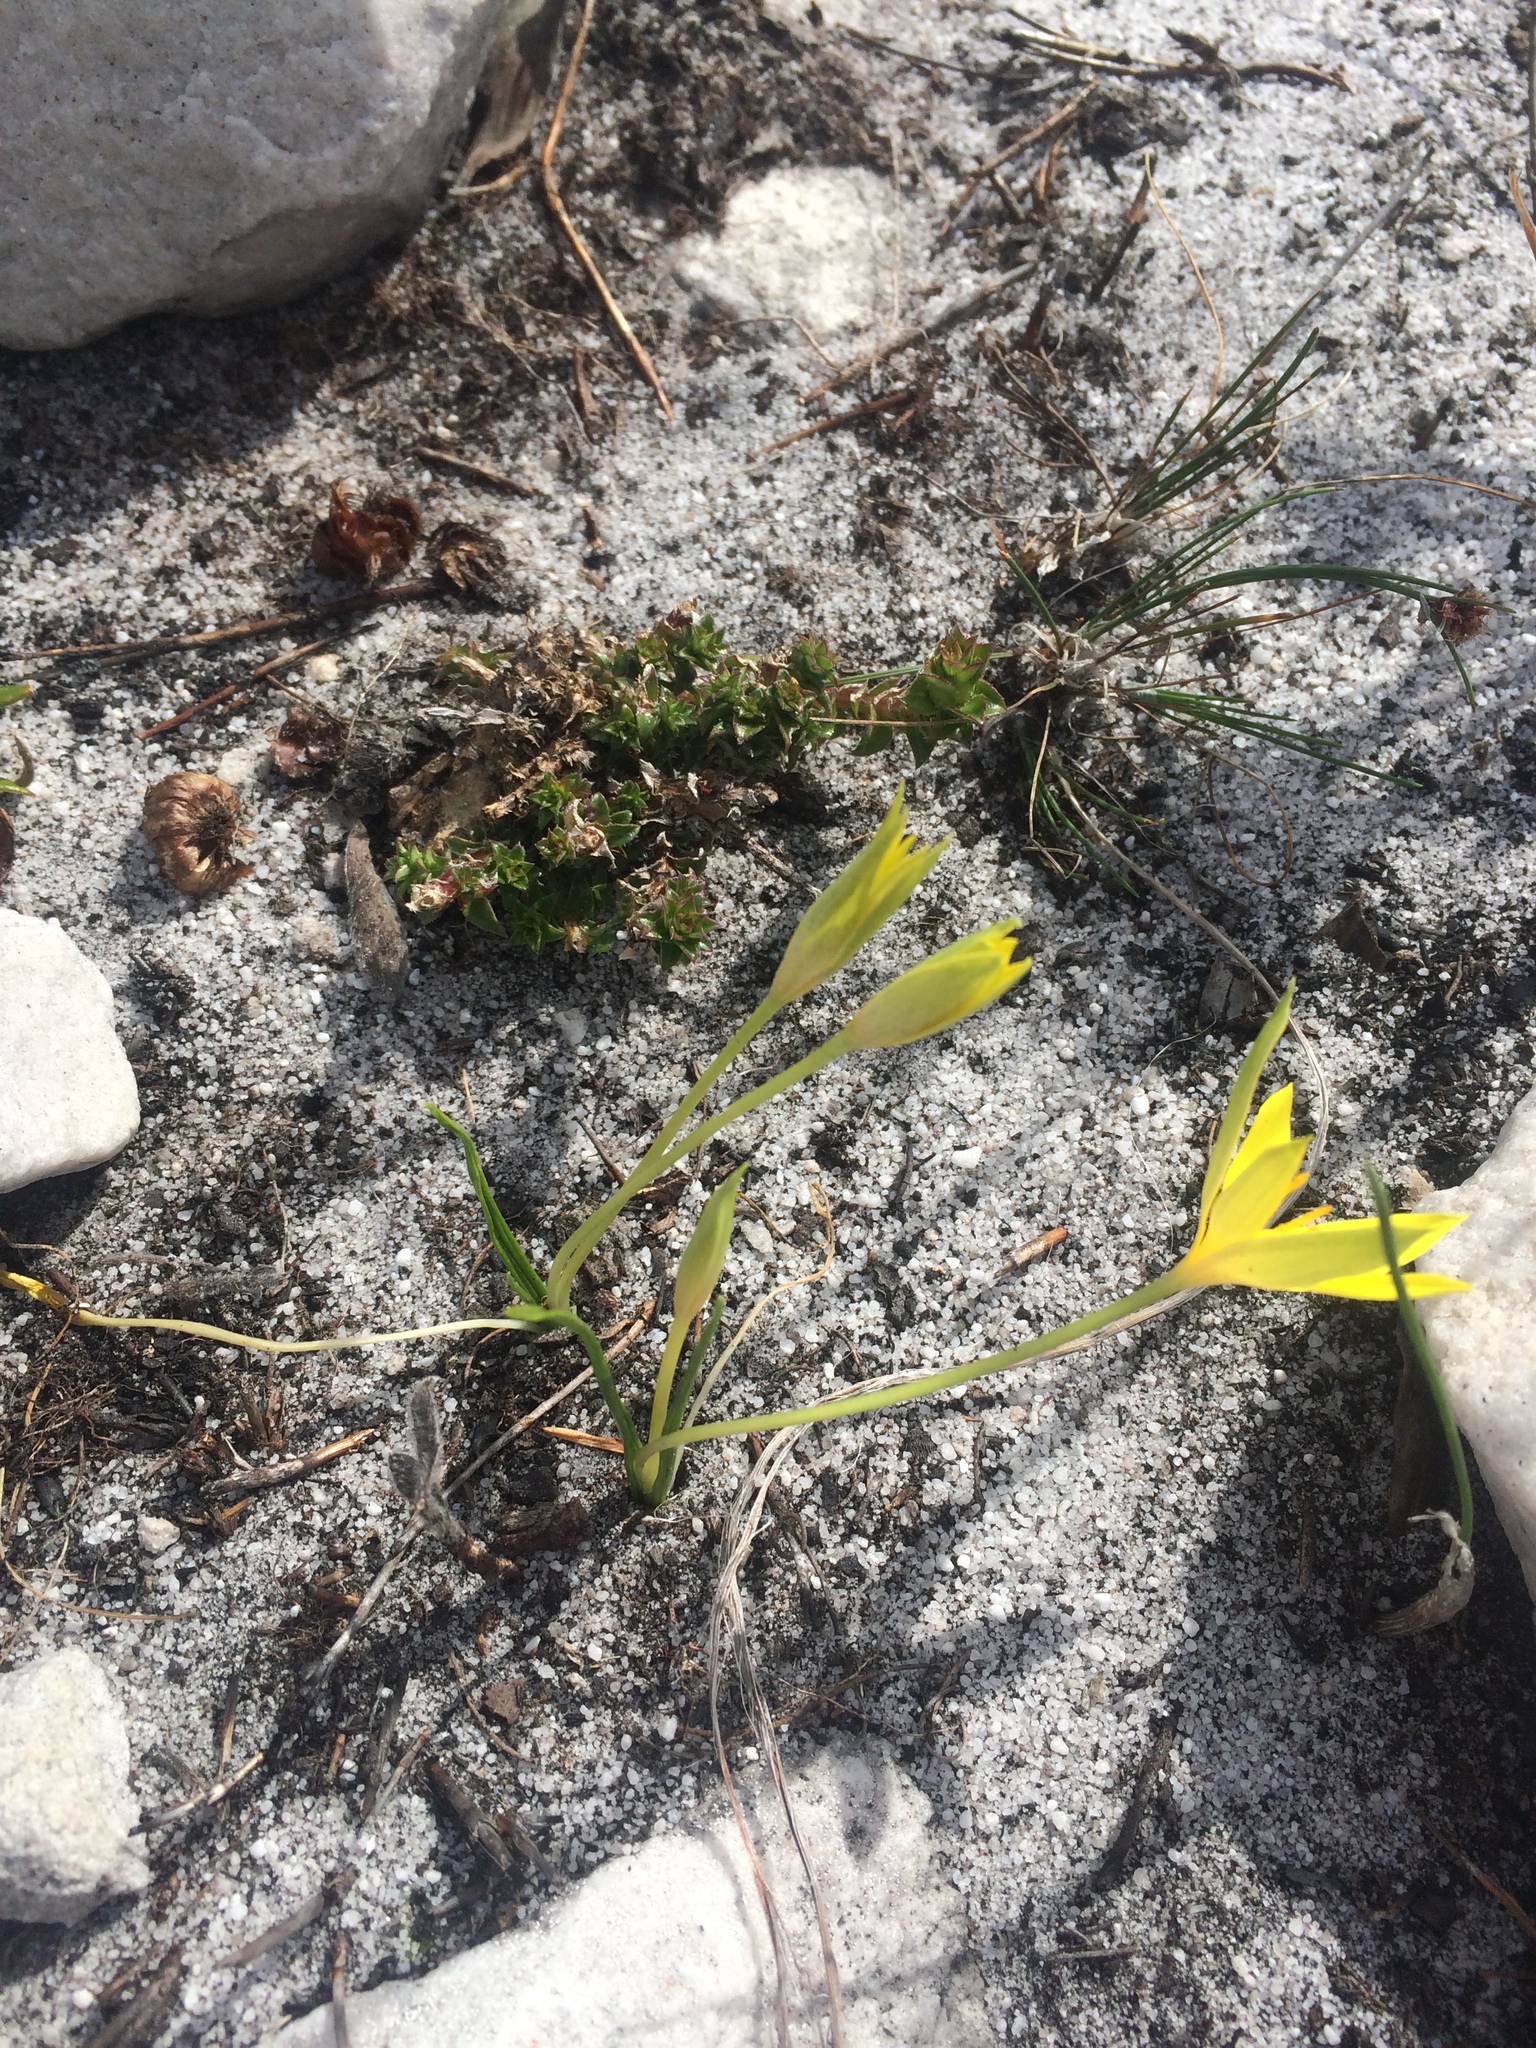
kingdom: Plantae
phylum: Tracheophyta
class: Liliopsida
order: Asparagales
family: Hypoxidaceae
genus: Empodium
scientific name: Empodium plicatum
